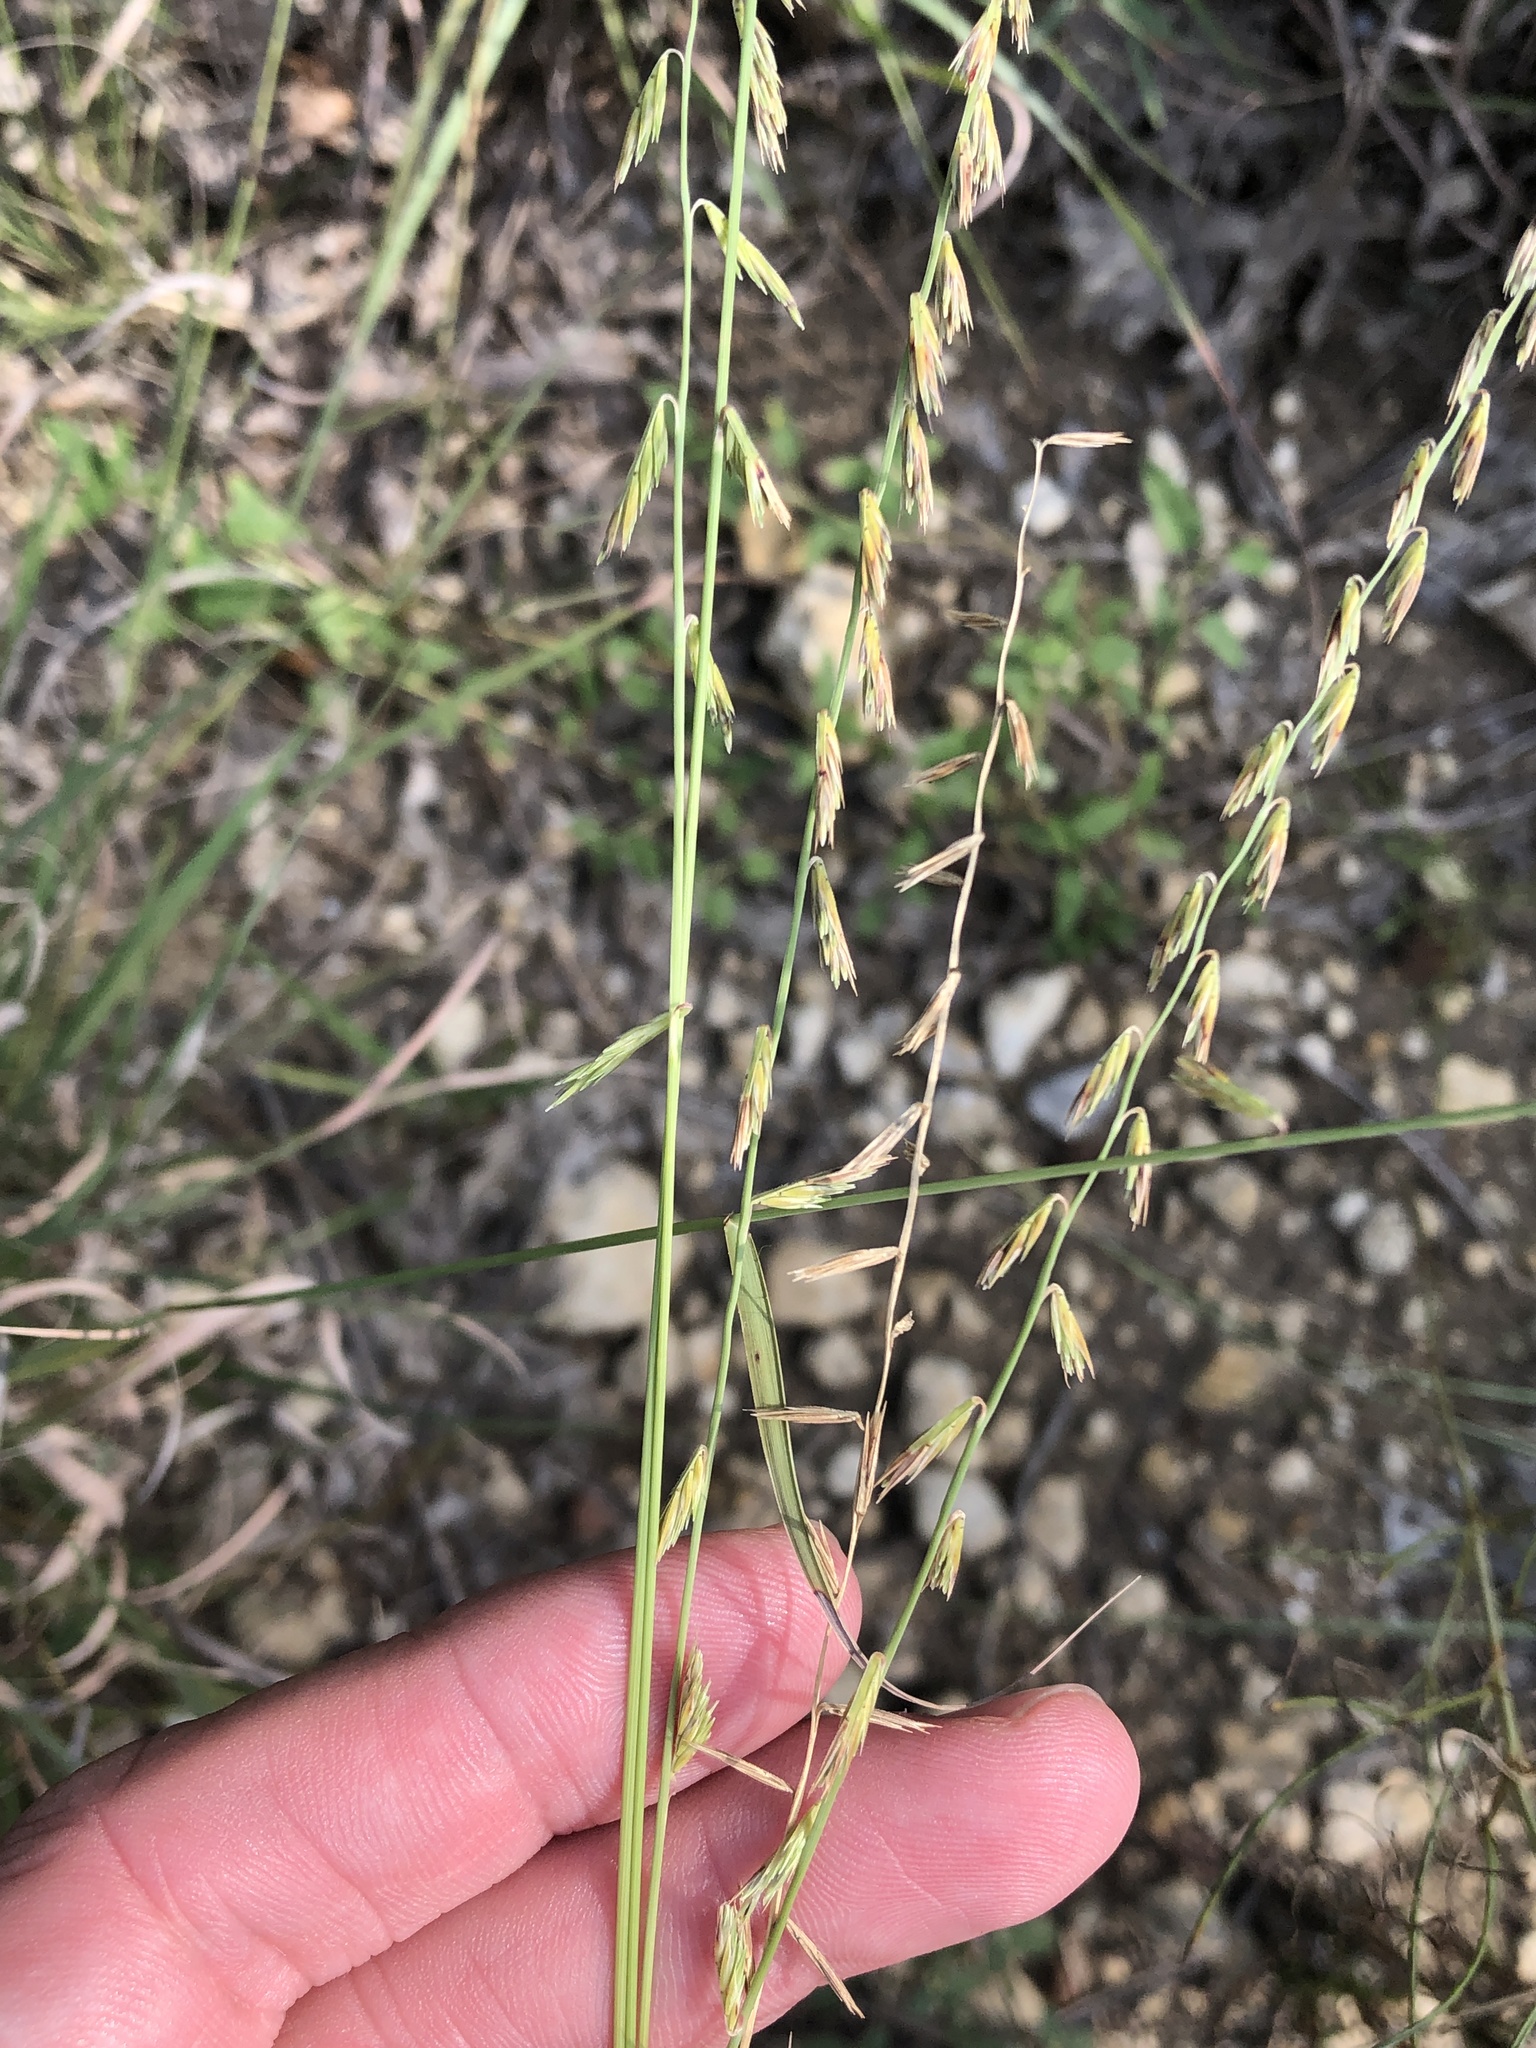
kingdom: Plantae
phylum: Tracheophyta
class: Liliopsida
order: Poales
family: Poaceae
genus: Bouteloua
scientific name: Bouteloua curtipendula
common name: Side-oats grama
